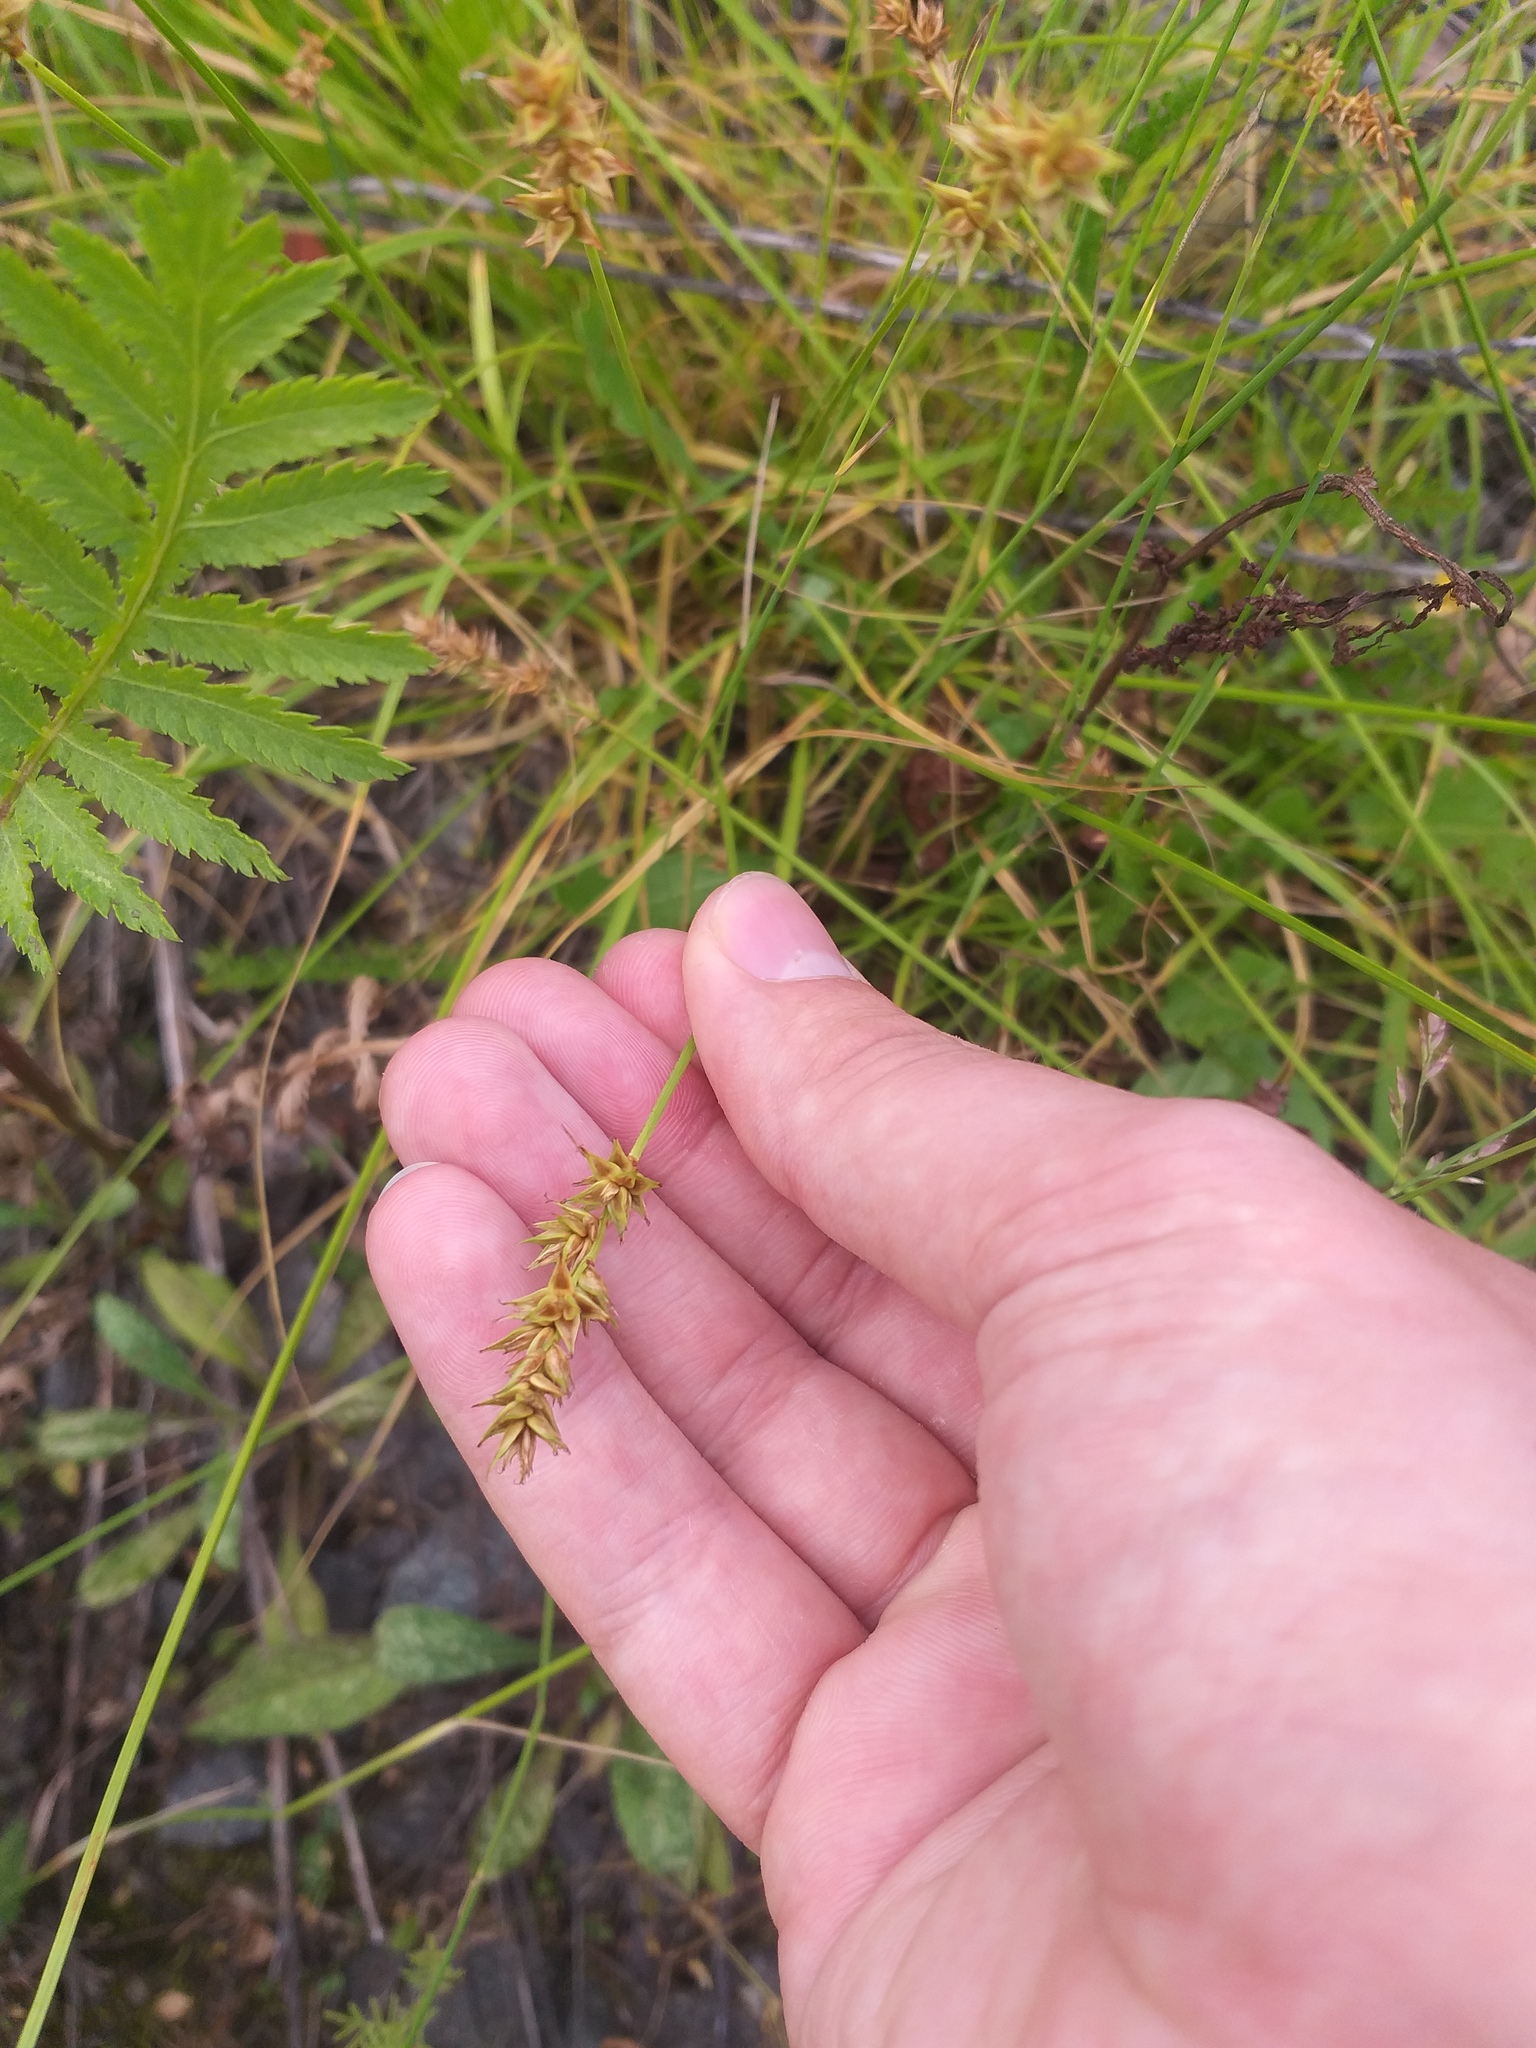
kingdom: Plantae
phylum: Tracheophyta
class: Liliopsida
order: Poales
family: Cyperaceae
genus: Carex
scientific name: Carex spicata
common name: Spiked sedge
